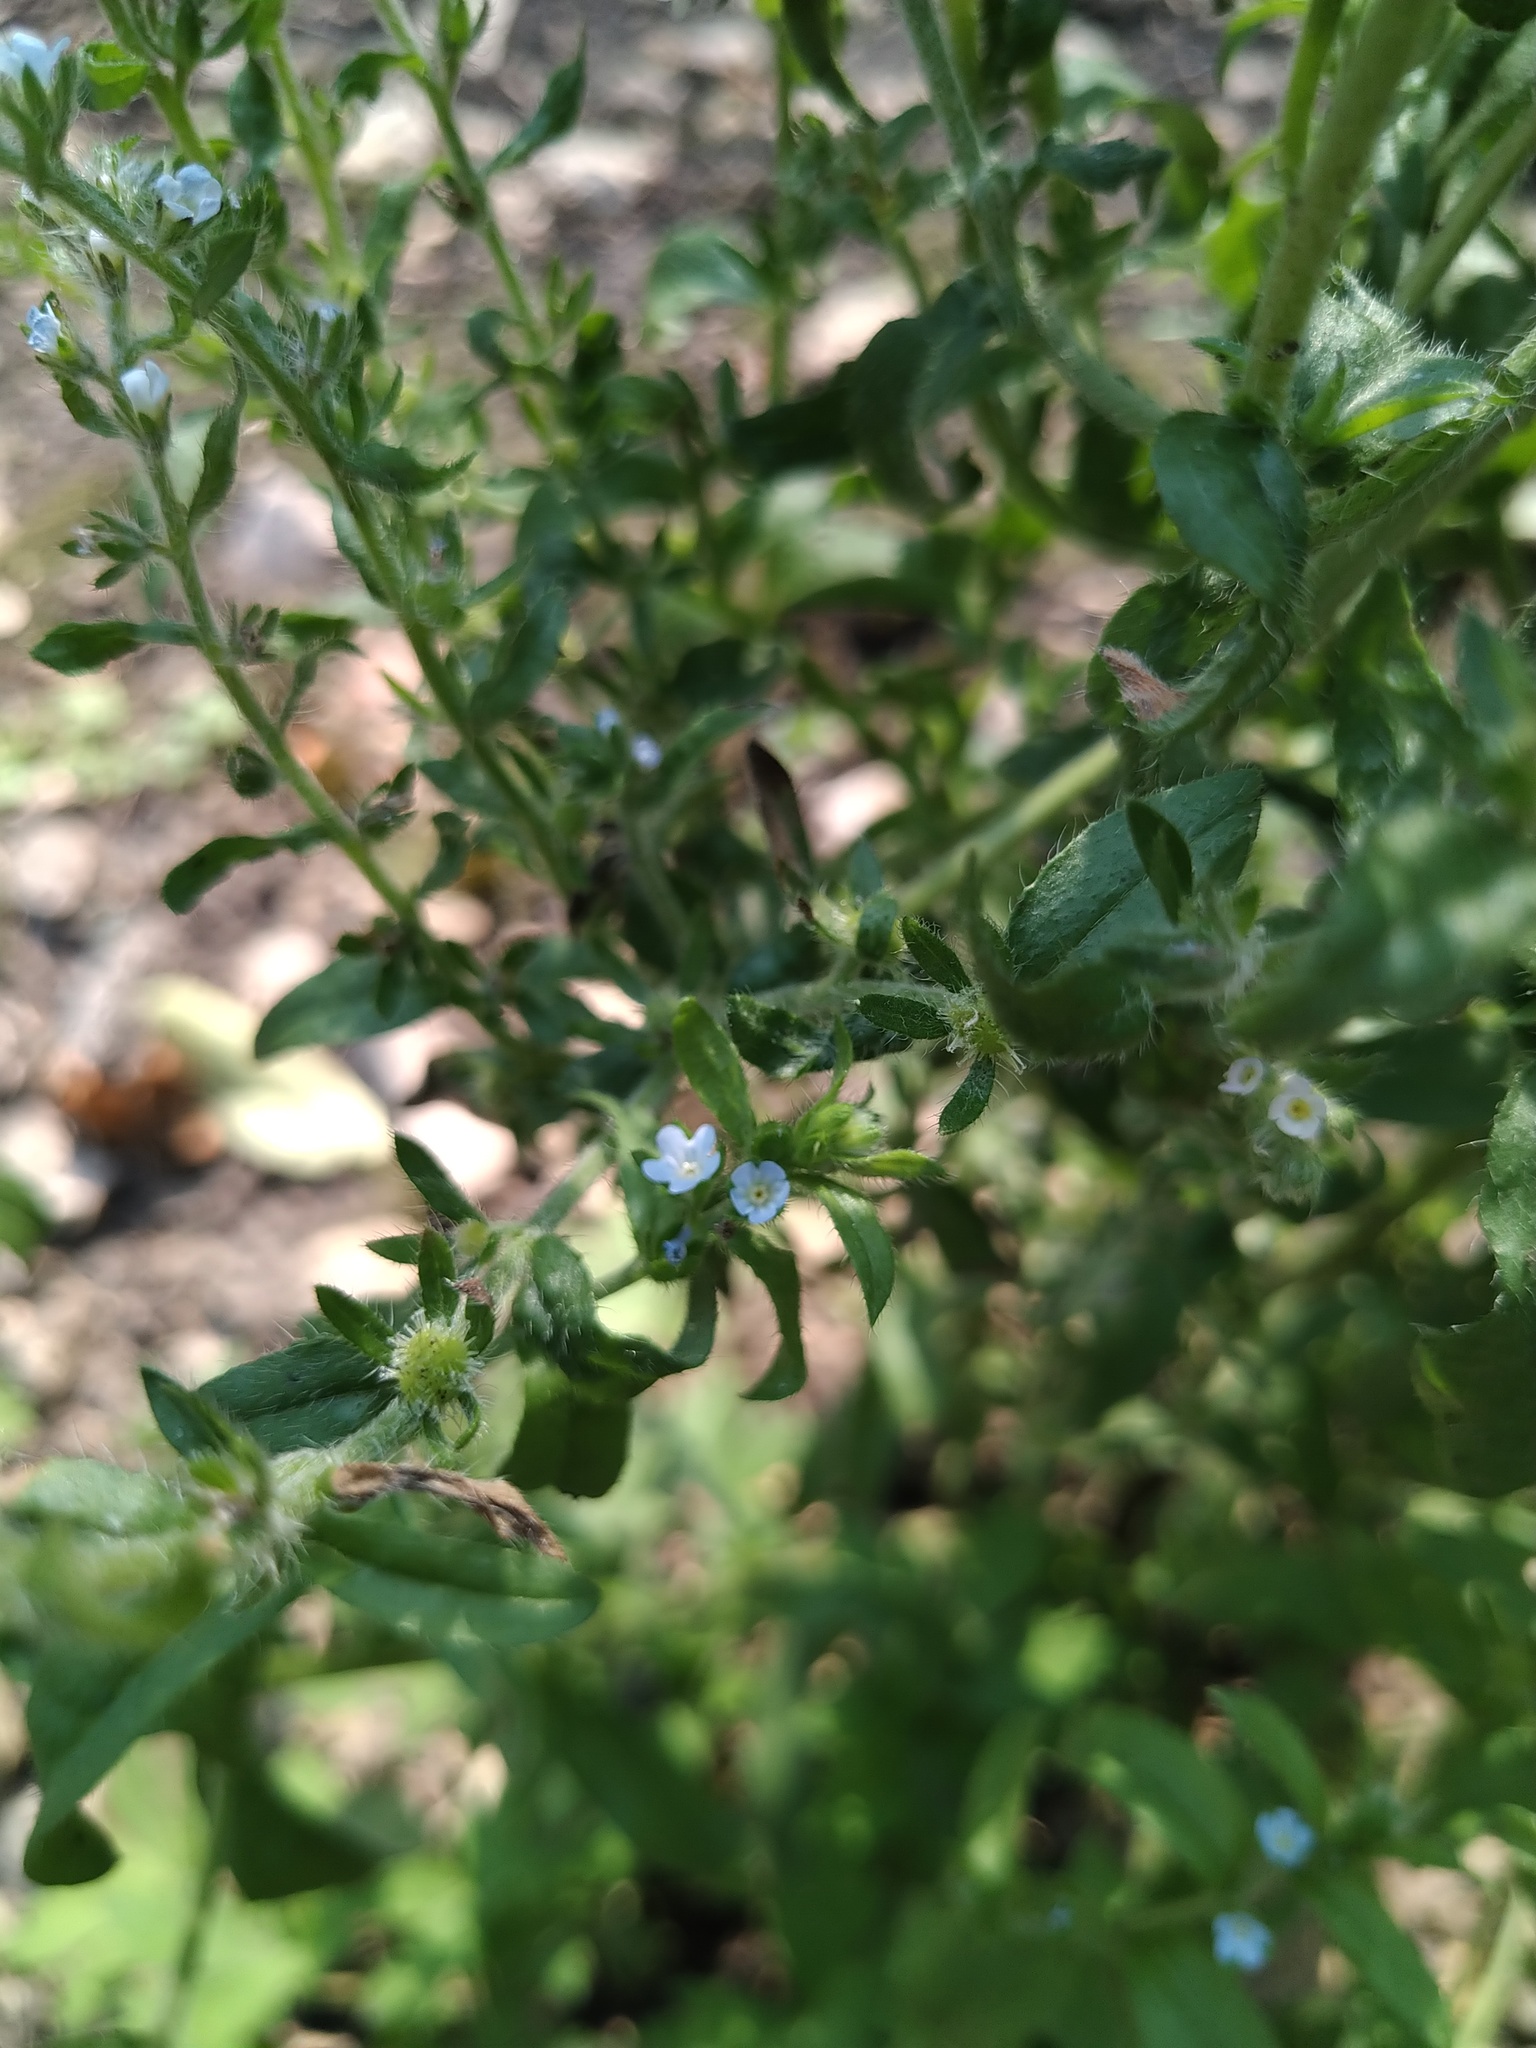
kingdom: Plantae
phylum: Tracheophyta
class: Magnoliopsida
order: Boraginales
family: Boraginaceae
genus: Lappula
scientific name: Lappula squarrosa
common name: European stickseed
